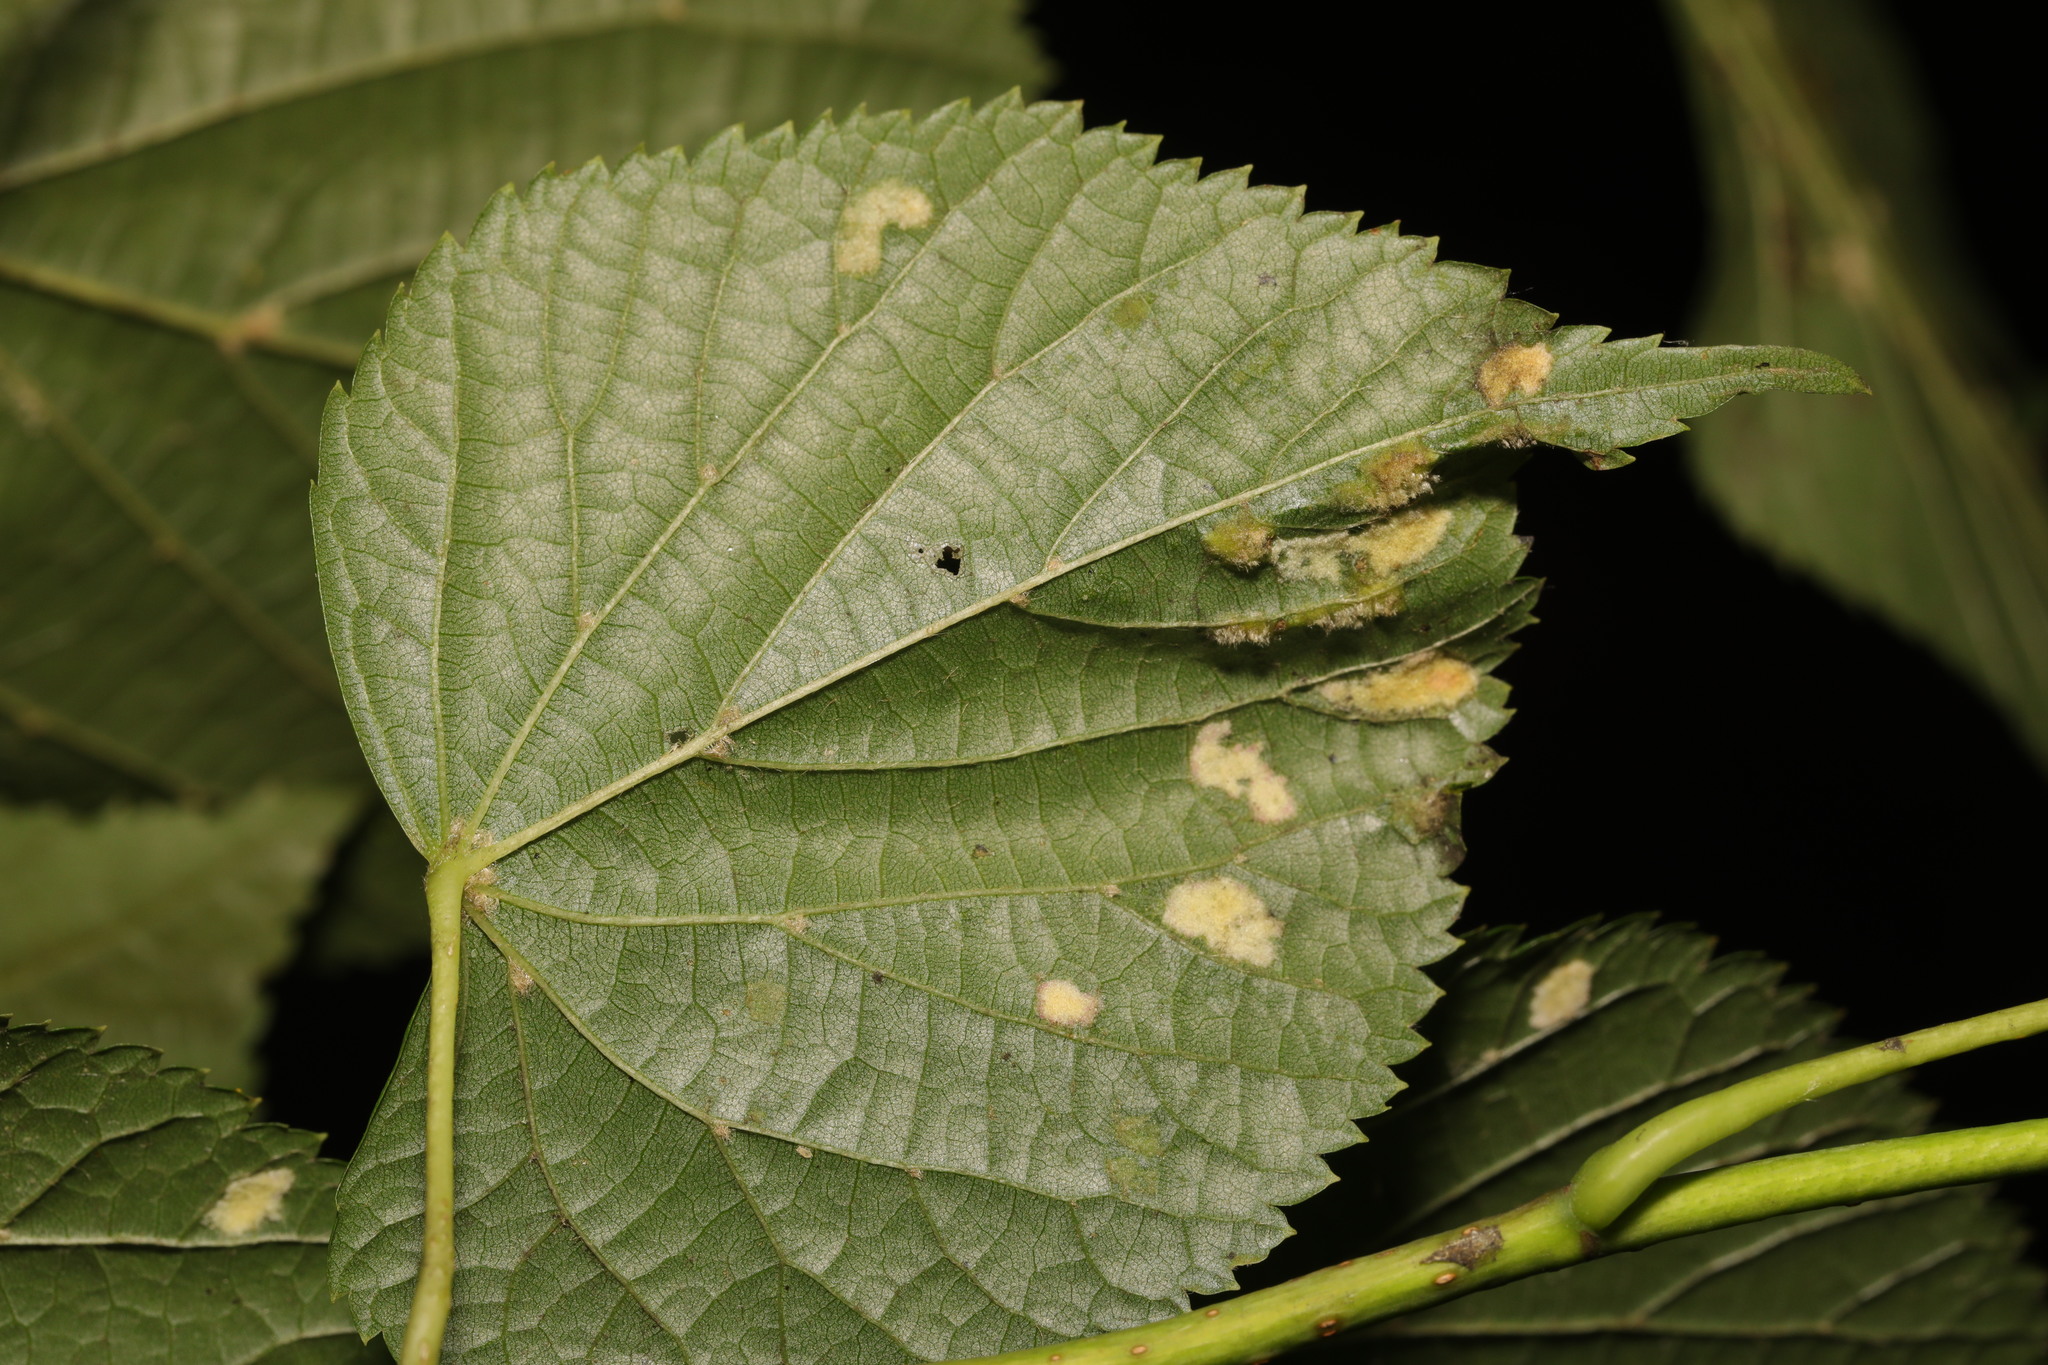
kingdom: Animalia
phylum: Arthropoda
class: Arachnida
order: Trombidiformes
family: Eriophyidae
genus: Eriophyes
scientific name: Eriophyes leiosoma
